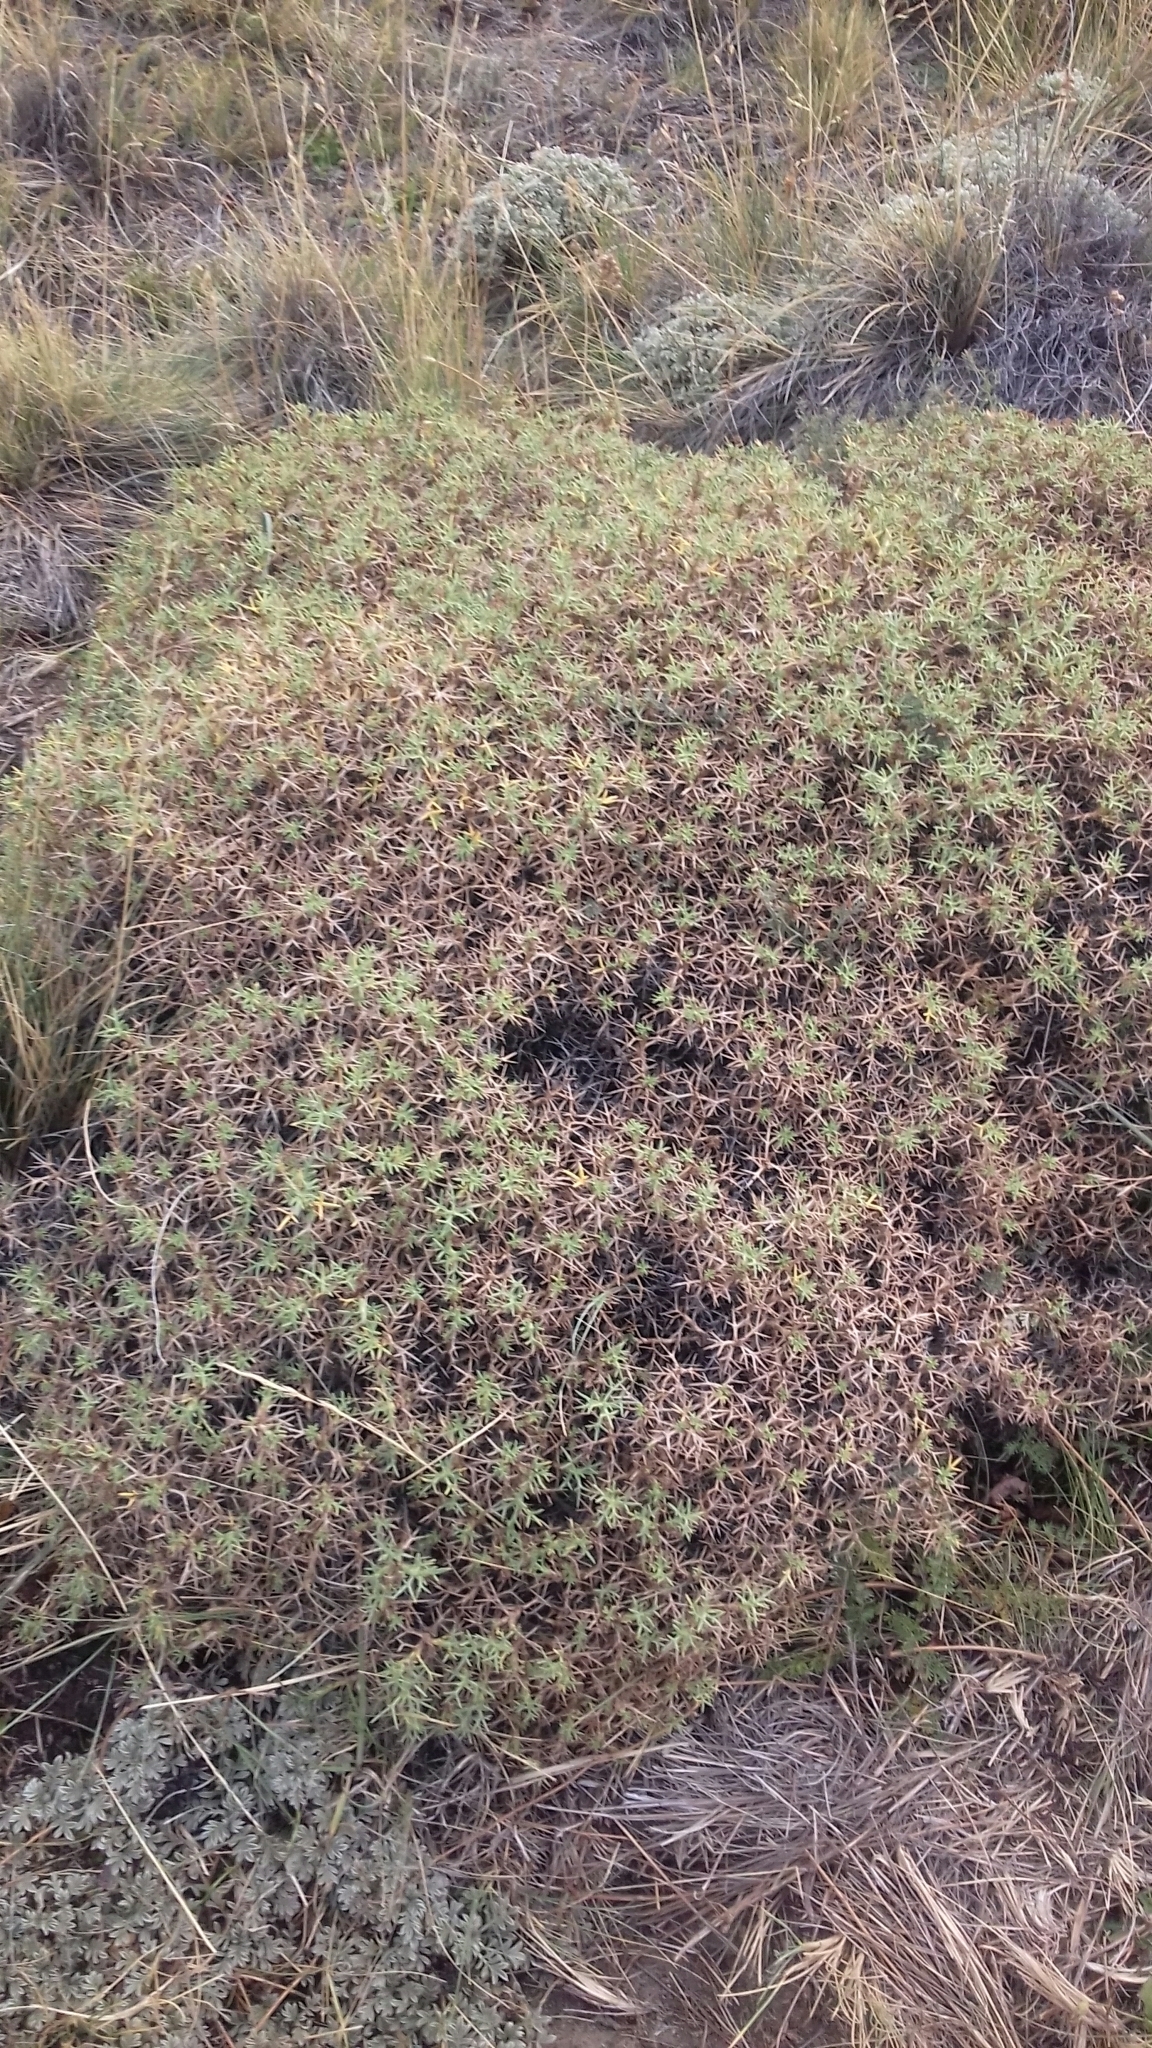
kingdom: Plantae
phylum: Tracheophyta
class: Magnoliopsida
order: Apiales
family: Apiaceae
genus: Azorella
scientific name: Azorella prolifera
